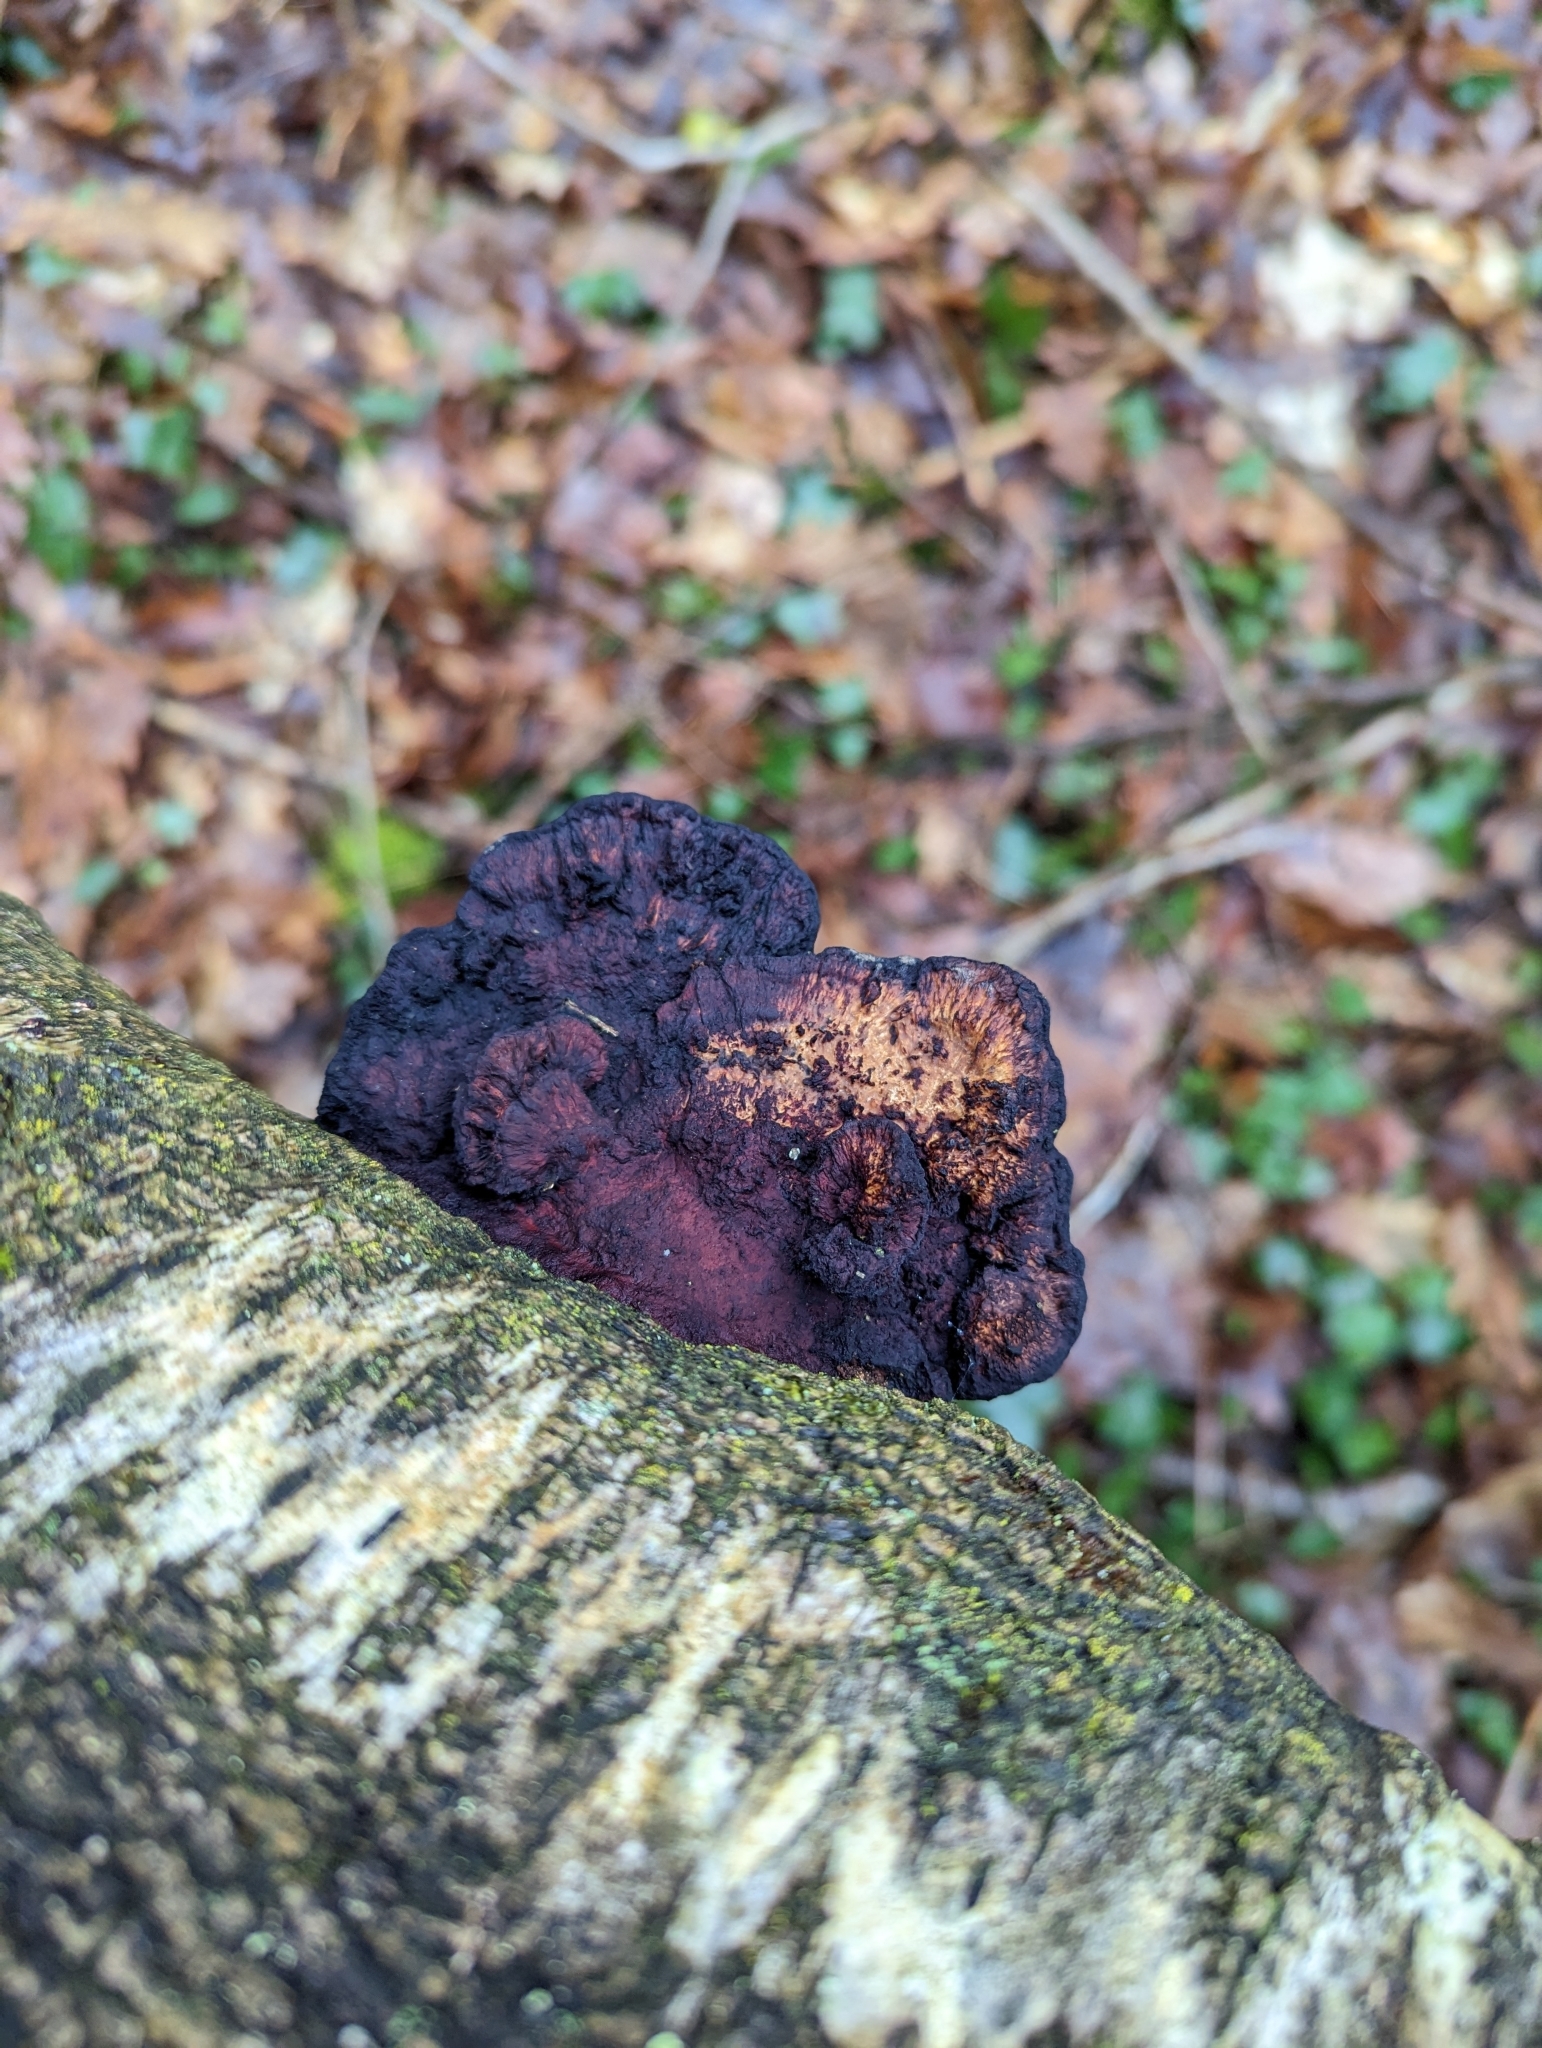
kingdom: Fungi
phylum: Basidiomycota
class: Agaricomycetes
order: Polyporales
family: Polyporaceae
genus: Daedaleopsis
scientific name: Daedaleopsis confragosa
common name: Blushing bracket
